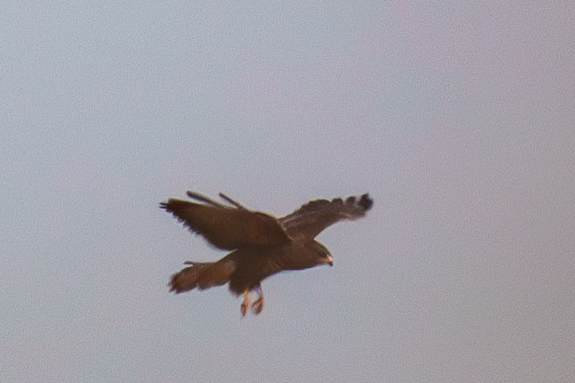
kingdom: Animalia
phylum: Chordata
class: Aves
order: Accipitriformes
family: Accipitridae
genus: Buteo
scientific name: Buteo buteo
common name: Common buzzard
